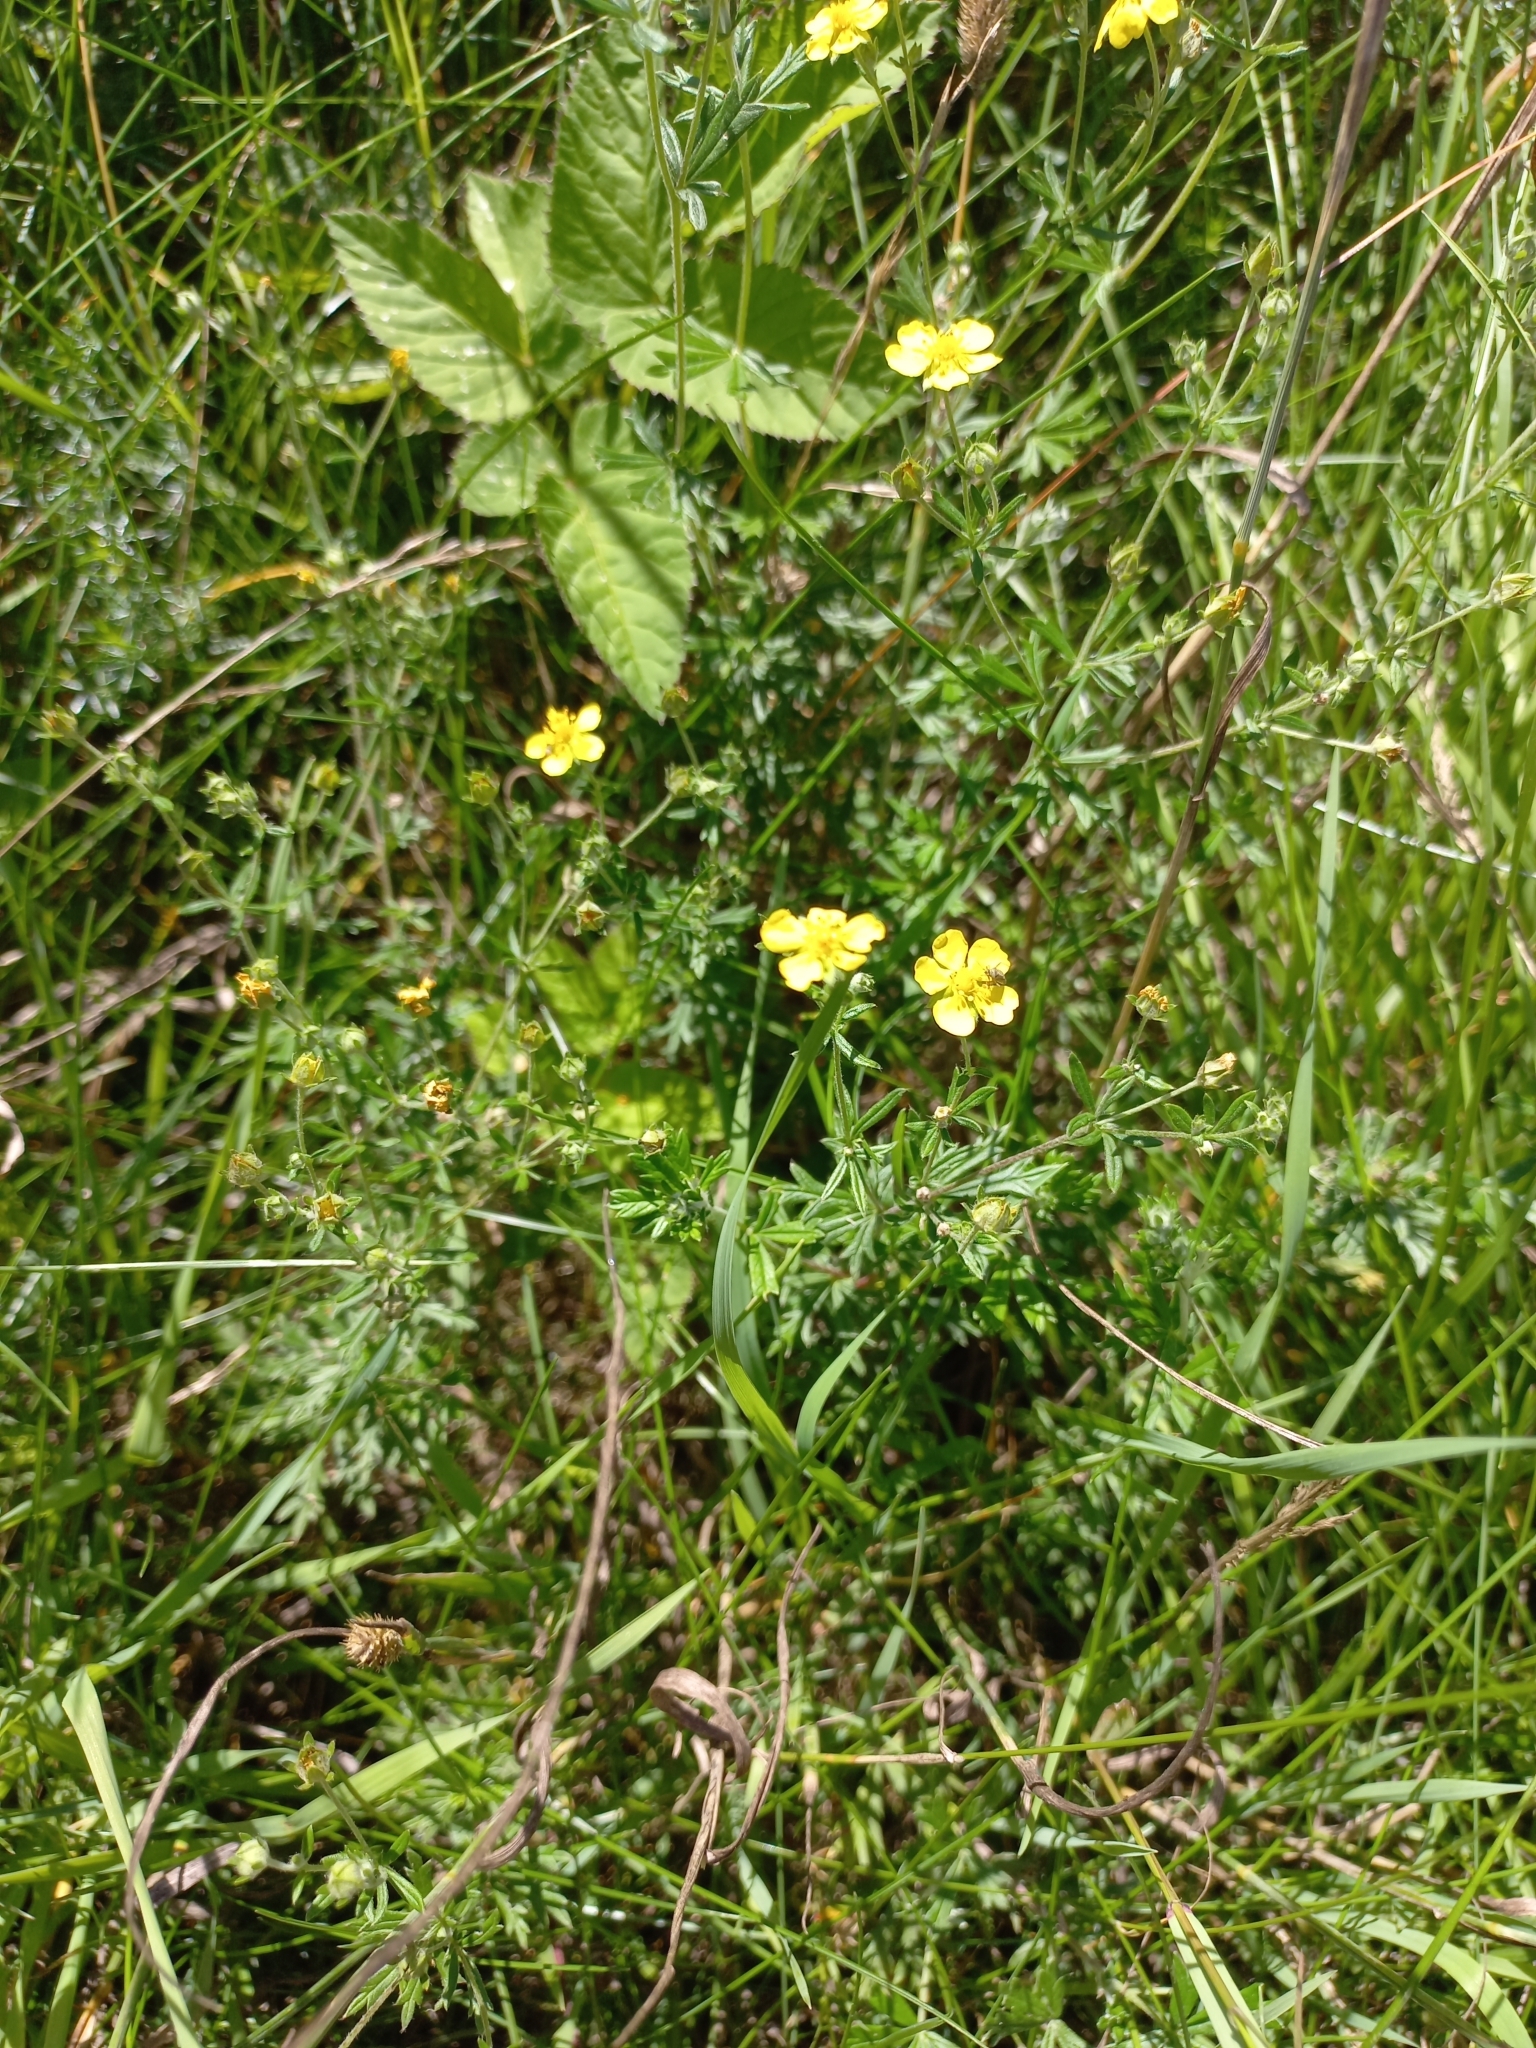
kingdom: Plantae
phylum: Tracheophyta
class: Magnoliopsida
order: Rosales
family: Rosaceae
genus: Potentilla
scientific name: Potentilla argentea
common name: Hoary cinquefoil
